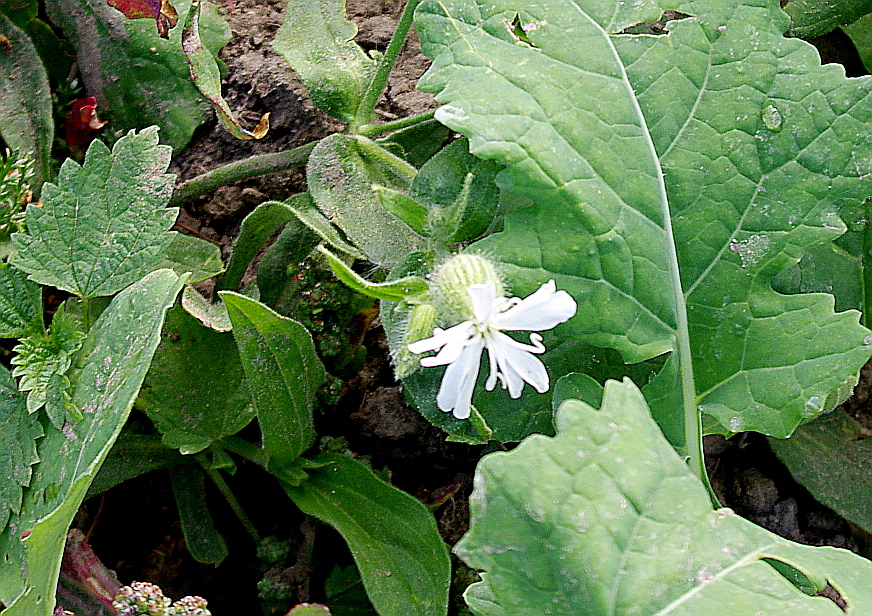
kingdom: Plantae
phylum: Tracheophyta
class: Magnoliopsida
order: Caryophyllales
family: Caryophyllaceae
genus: Silene
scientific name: Silene latifolia
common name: White campion
